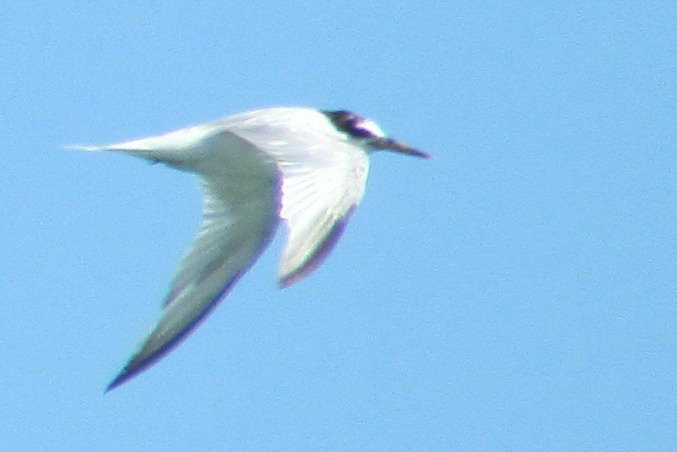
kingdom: Animalia
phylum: Chordata
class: Aves
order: Charadriiformes
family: Laridae
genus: Sternula
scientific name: Sternula albifrons
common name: Little tern
